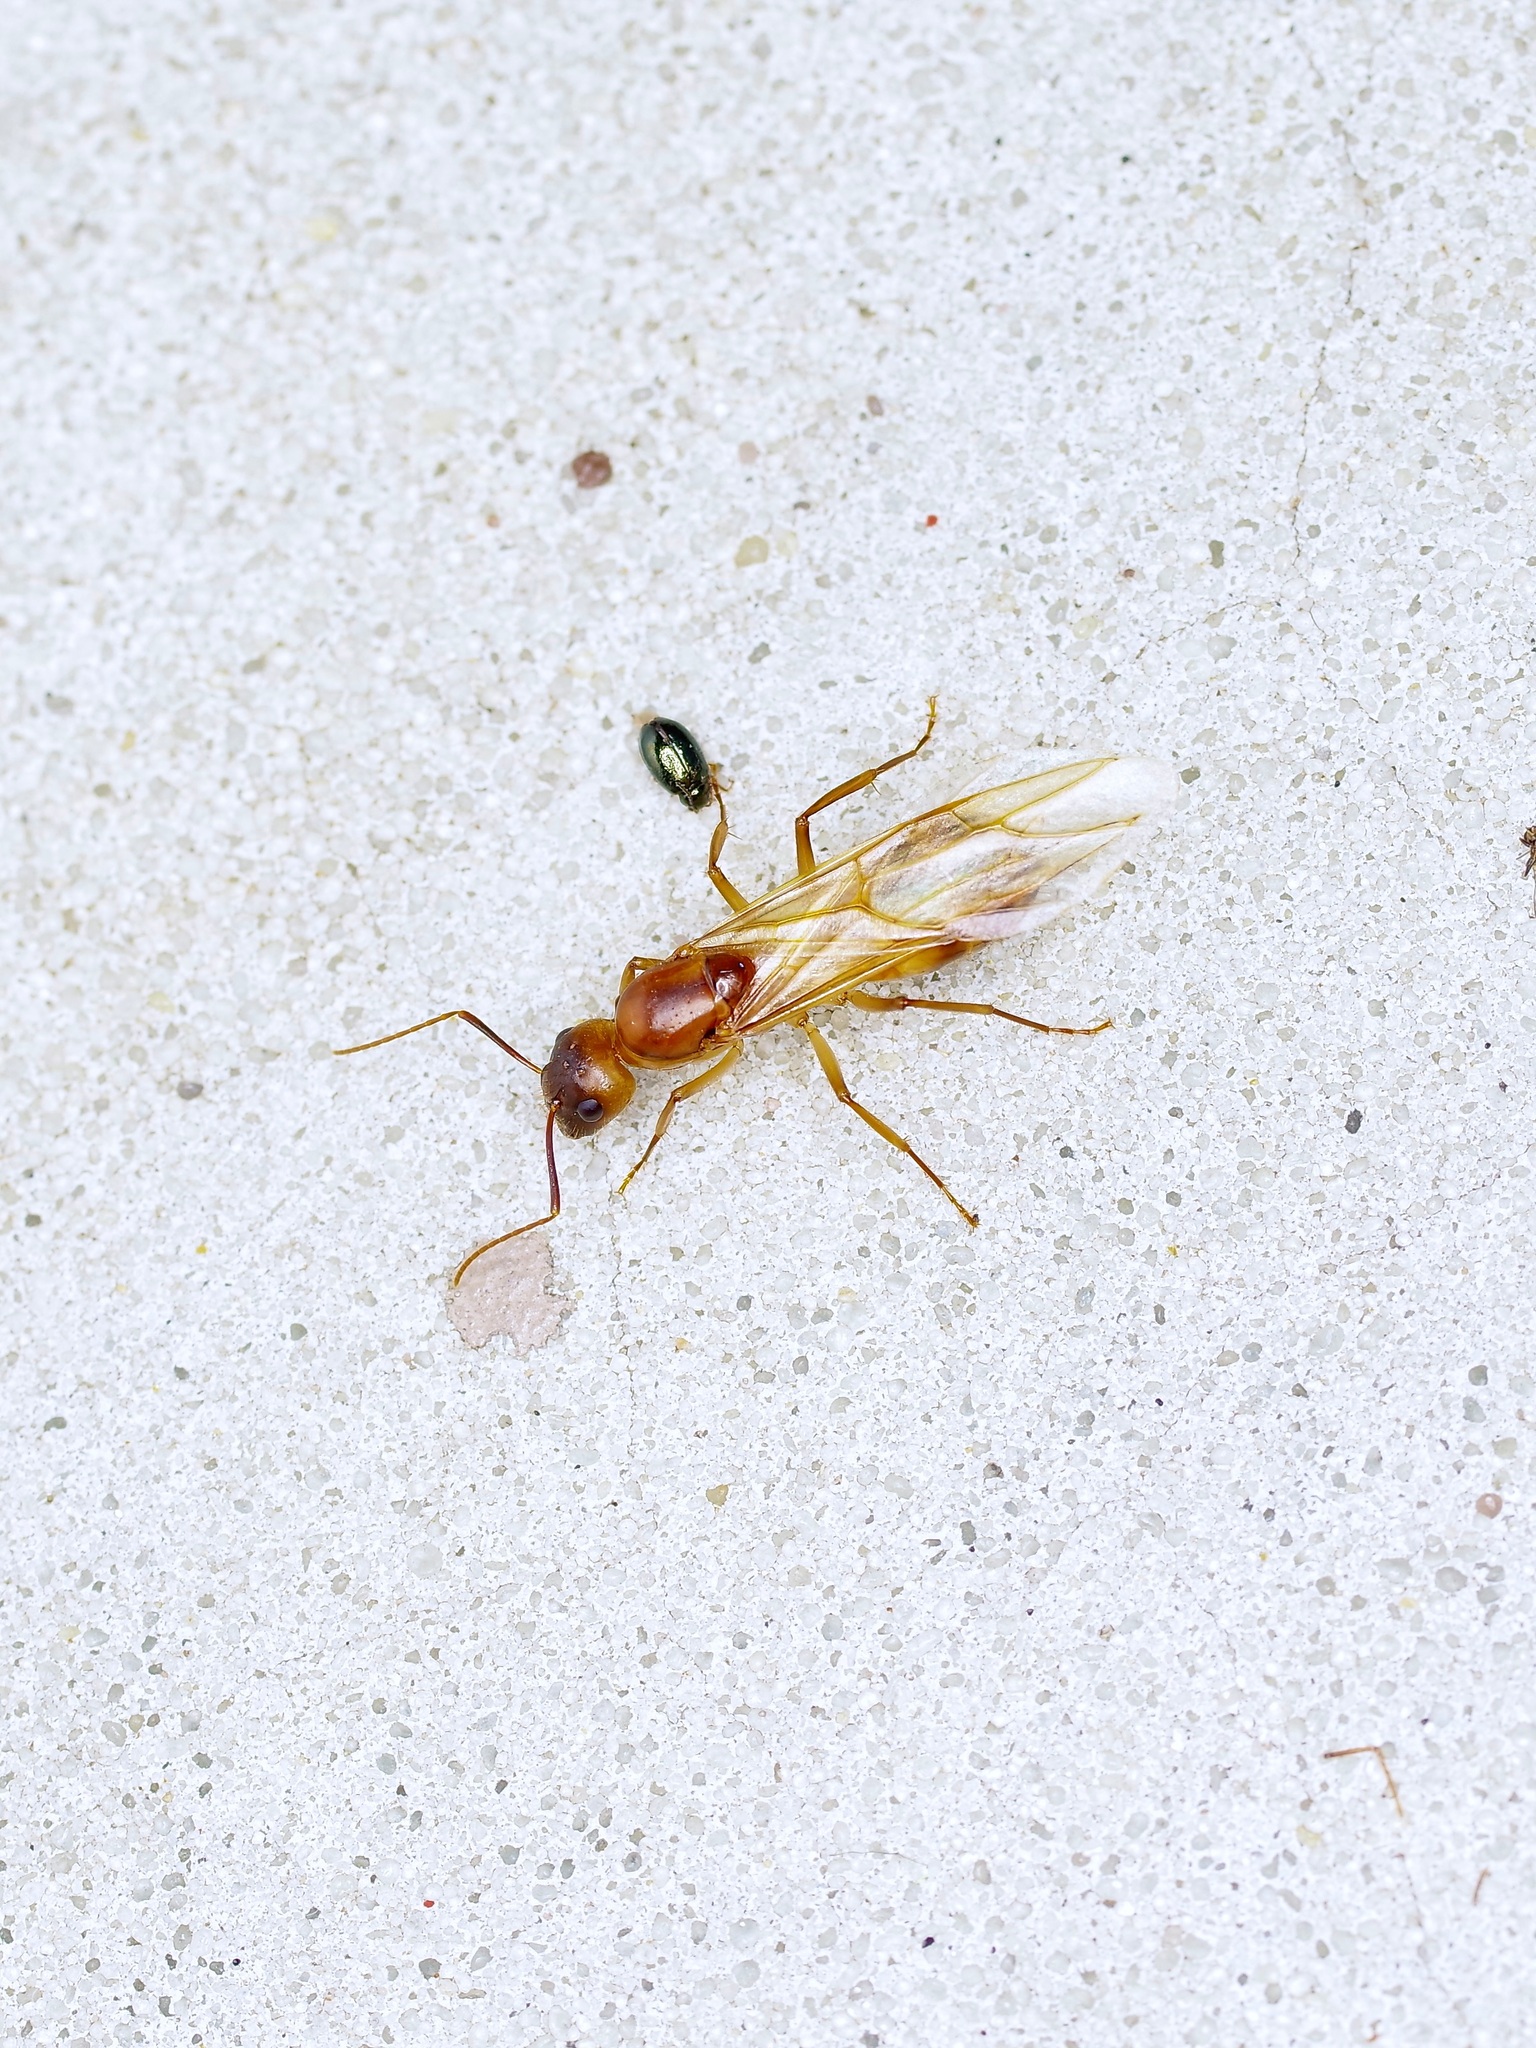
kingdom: Animalia
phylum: Arthropoda
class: Insecta
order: Hymenoptera
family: Formicidae
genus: Camponotus
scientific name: Camponotus festinatus
